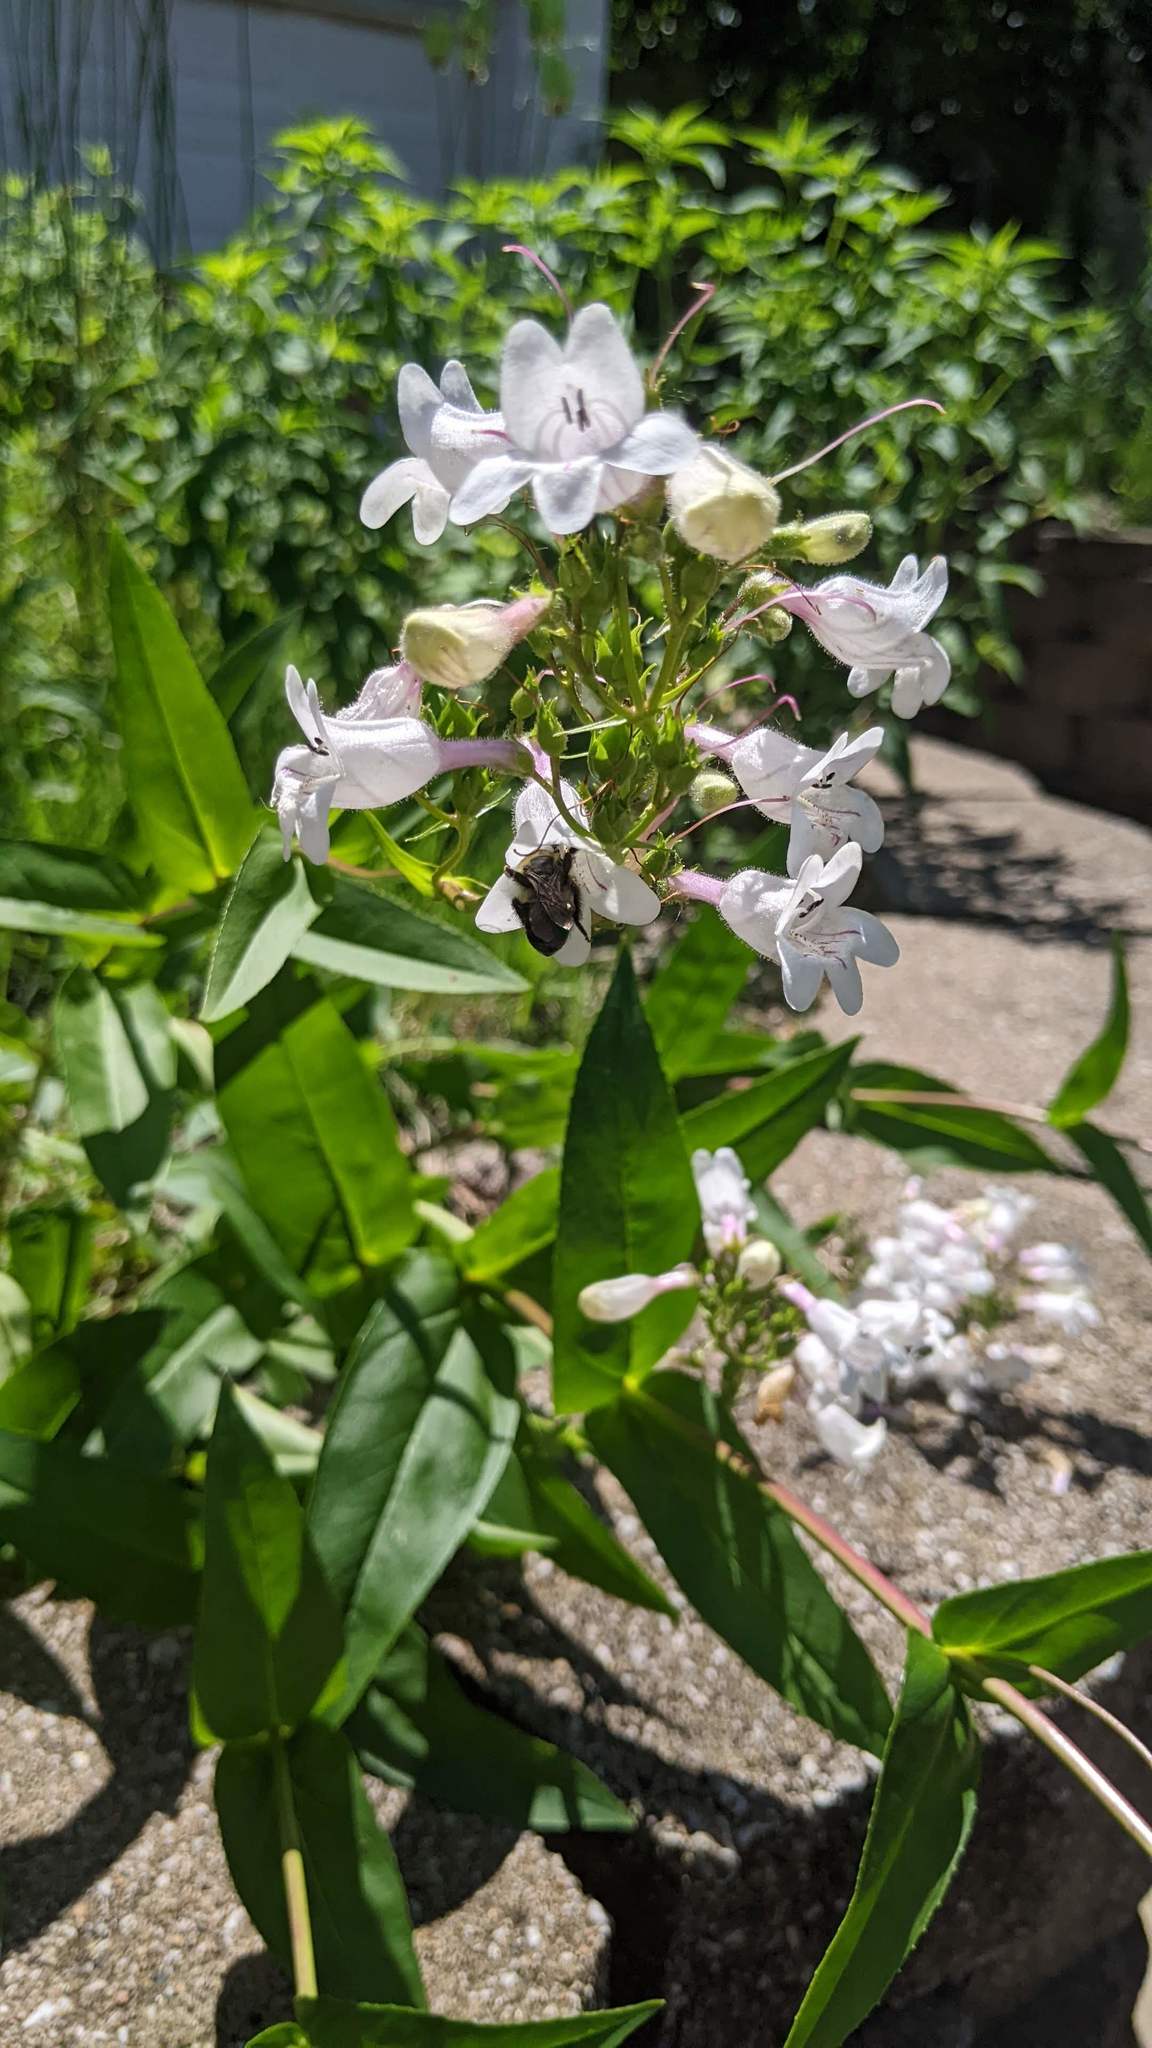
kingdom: Animalia
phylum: Arthropoda
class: Insecta
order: Hymenoptera
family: Apidae
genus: Bombus
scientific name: Bombus bimaculatus
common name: Two-spotted bumble bee
